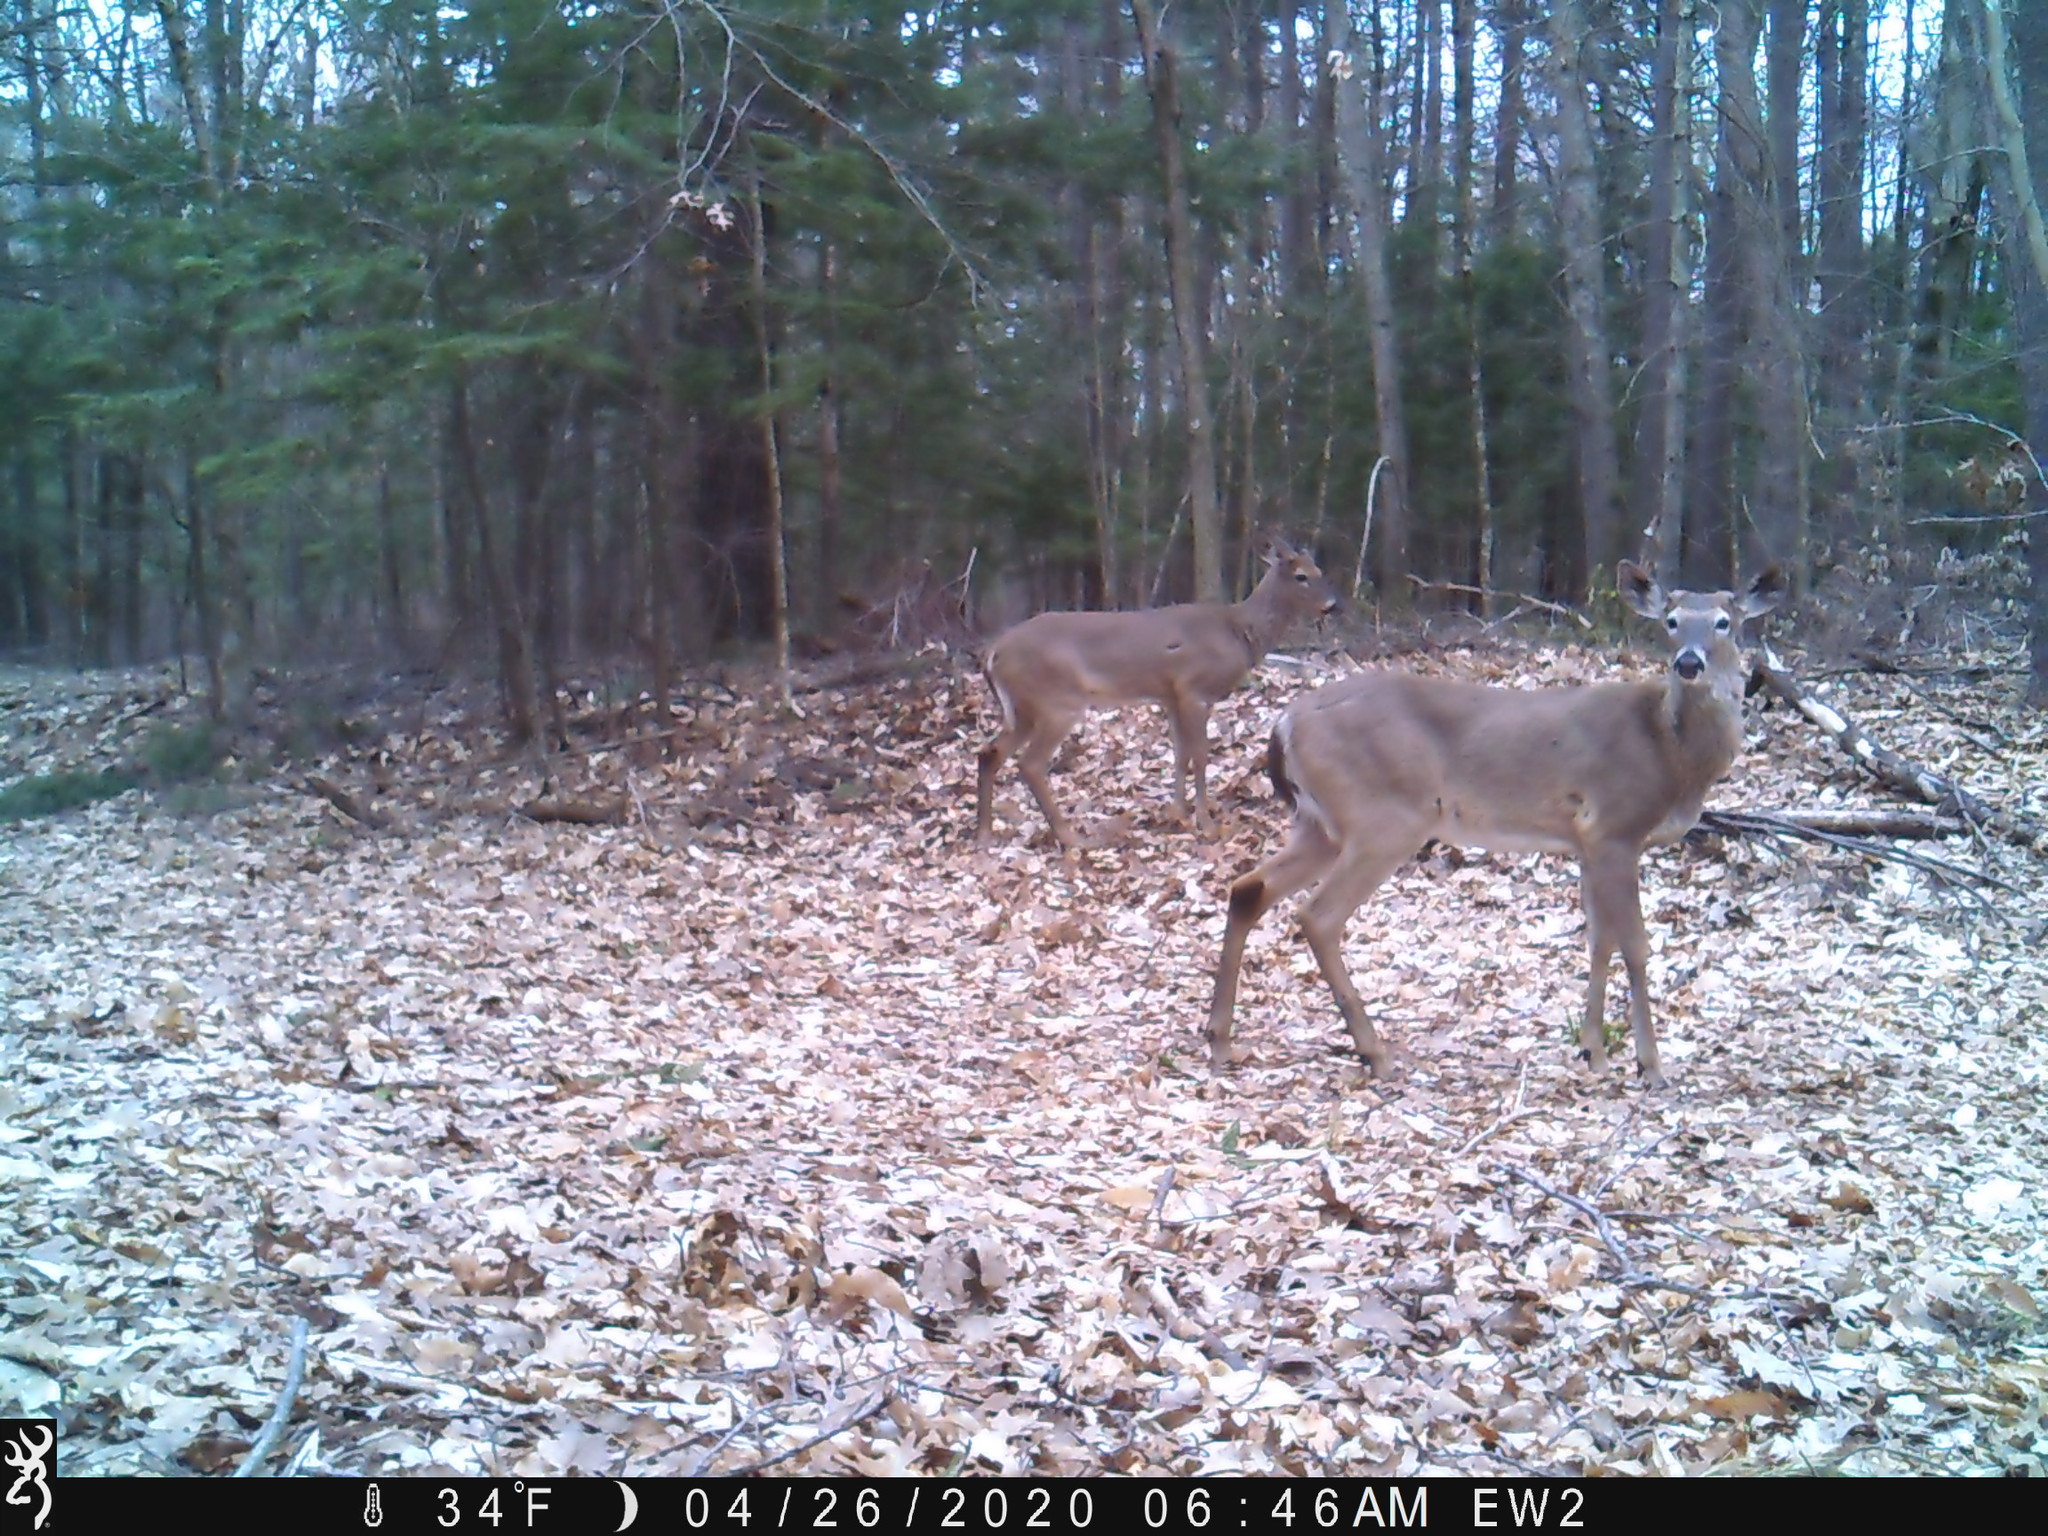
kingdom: Animalia
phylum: Chordata
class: Mammalia
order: Artiodactyla
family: Cervidae
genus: Odocoileus
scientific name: Odocoileus virginianus
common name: White-tailed deer
